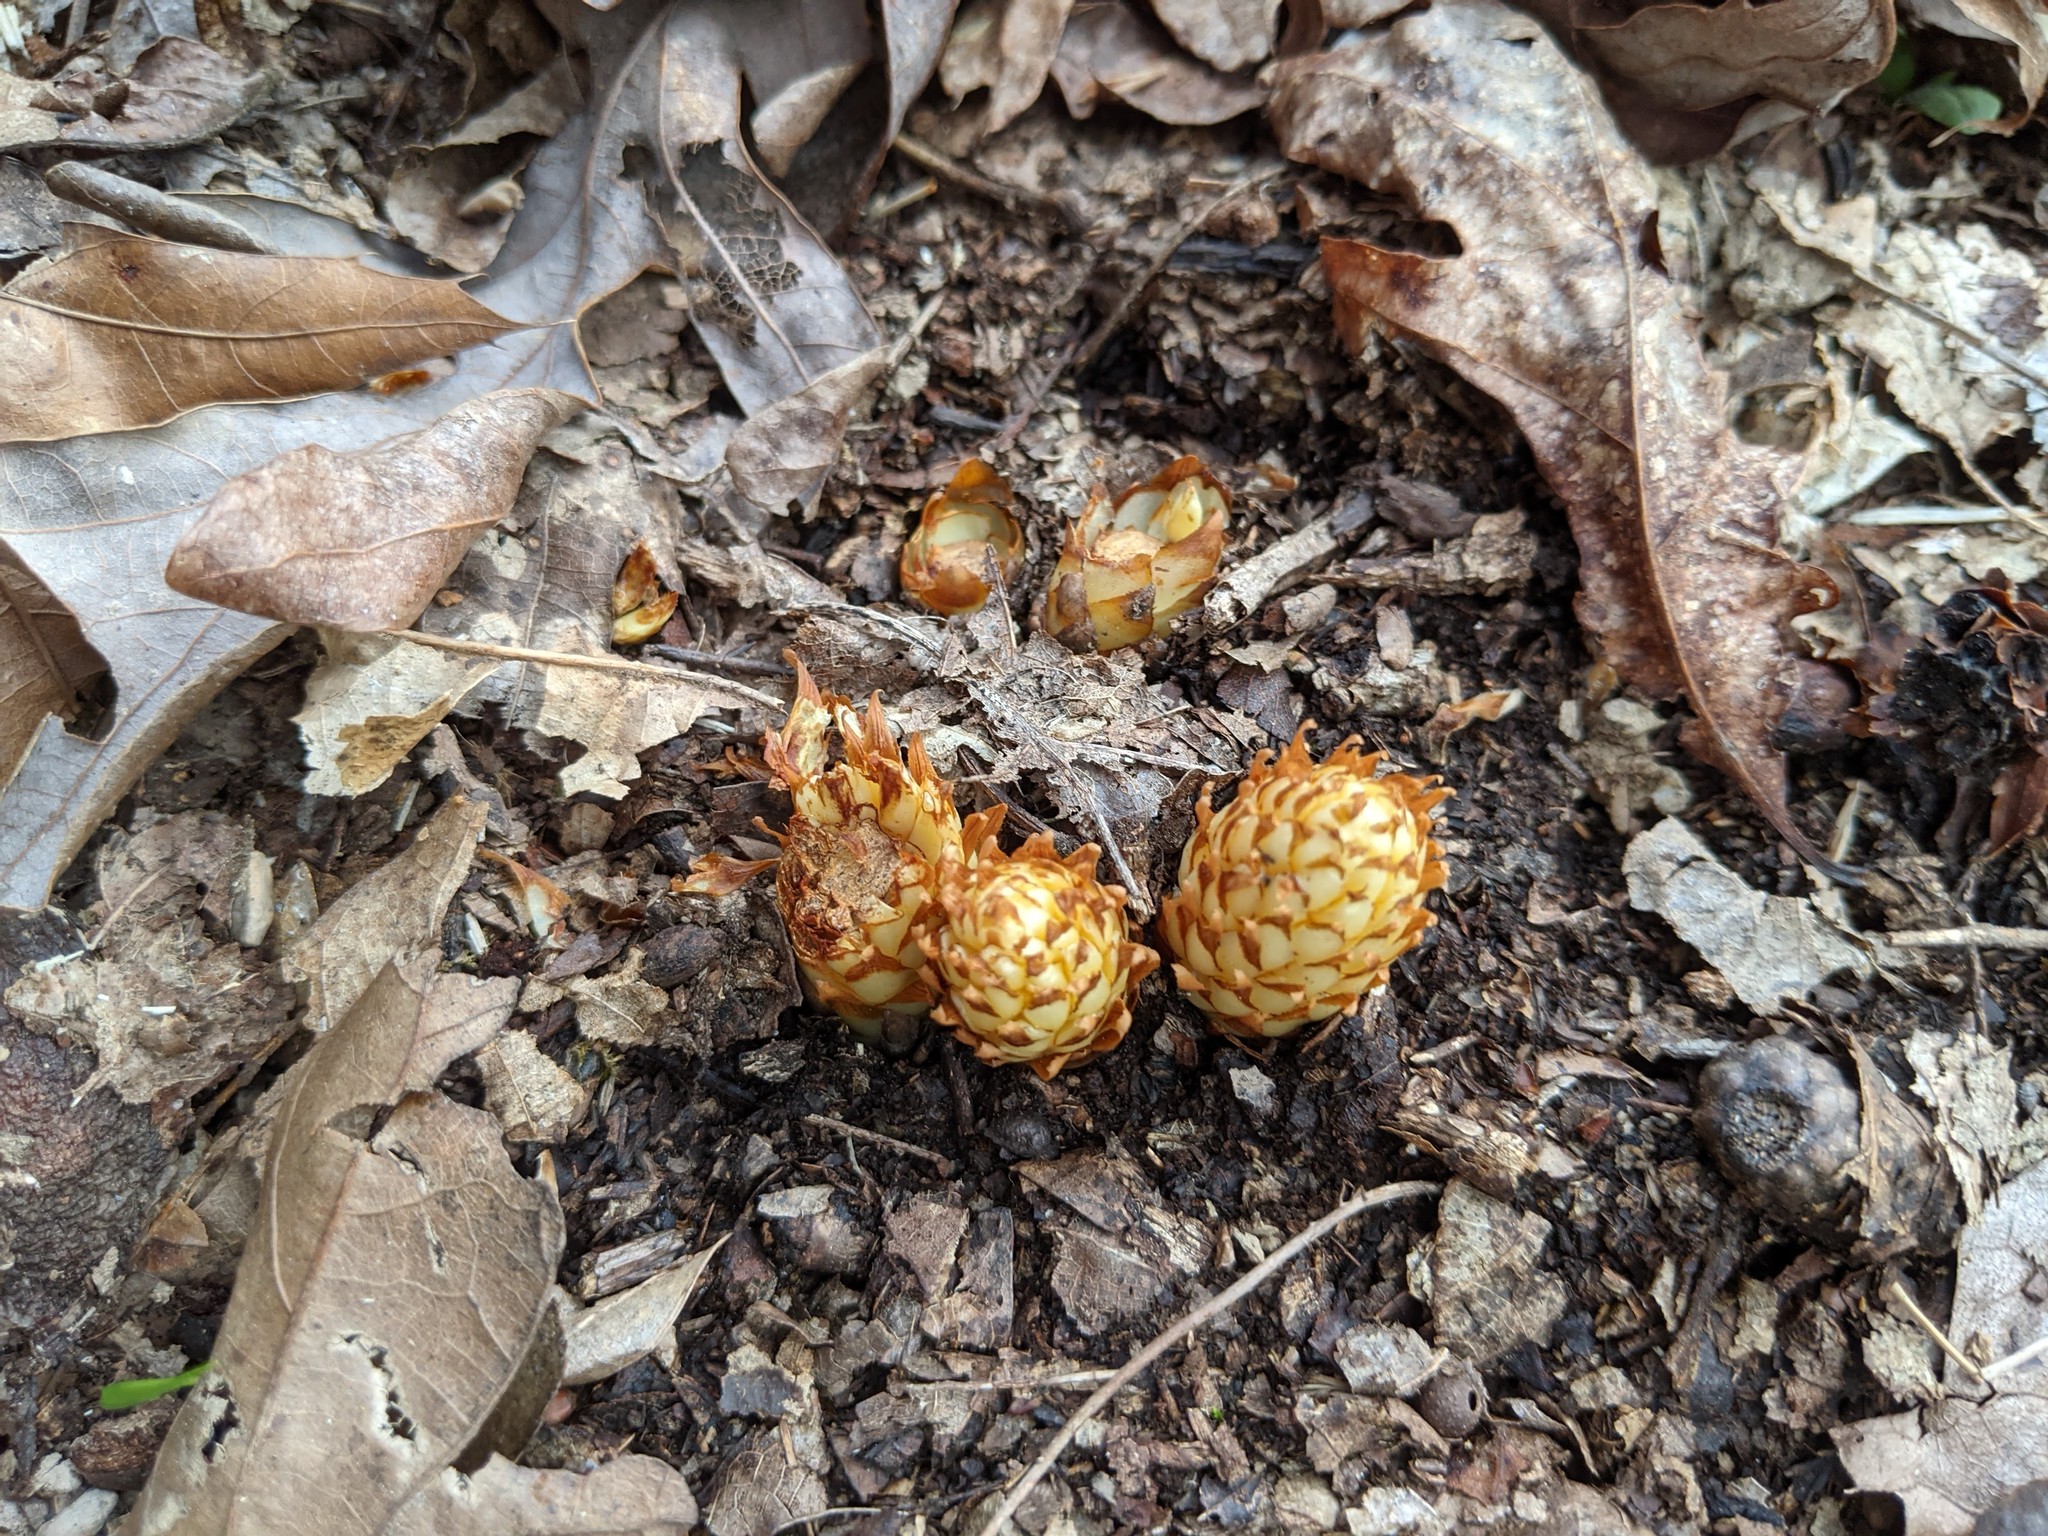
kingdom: Plantae
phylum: Tracheophyta
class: Magnoliopsida
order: Lamiales
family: Orobanchaceae
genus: Conopholis
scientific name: Conopholis americana
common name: American cancer-root
